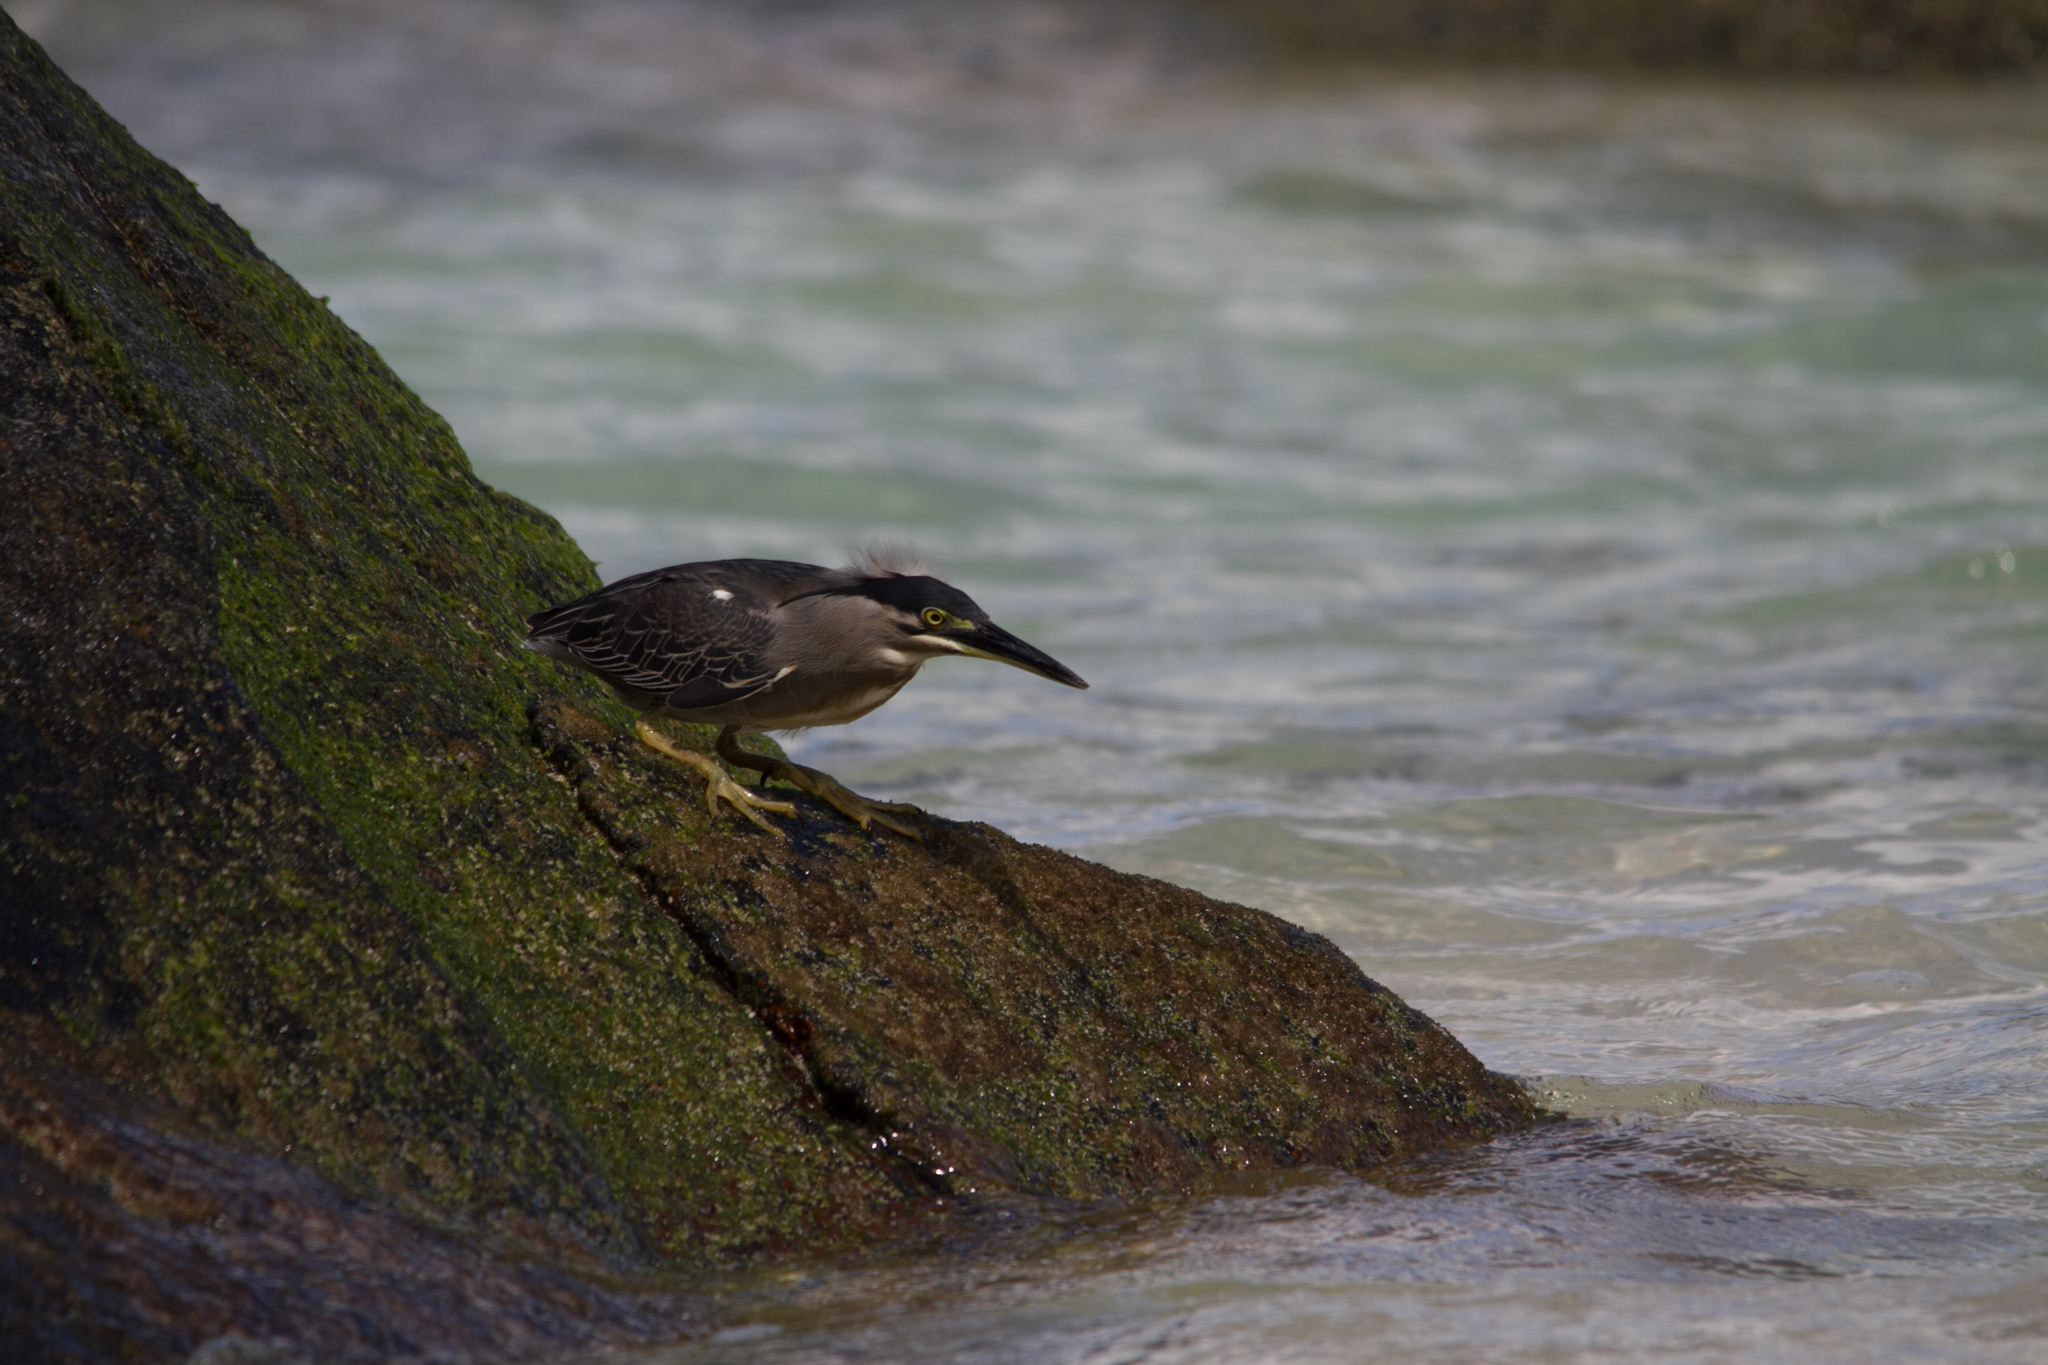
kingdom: Animalia
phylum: Chordata
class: Aves
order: Pelecaniformes
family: Ardeidae
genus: Butorides
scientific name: Butorides striata
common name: Striated heron
